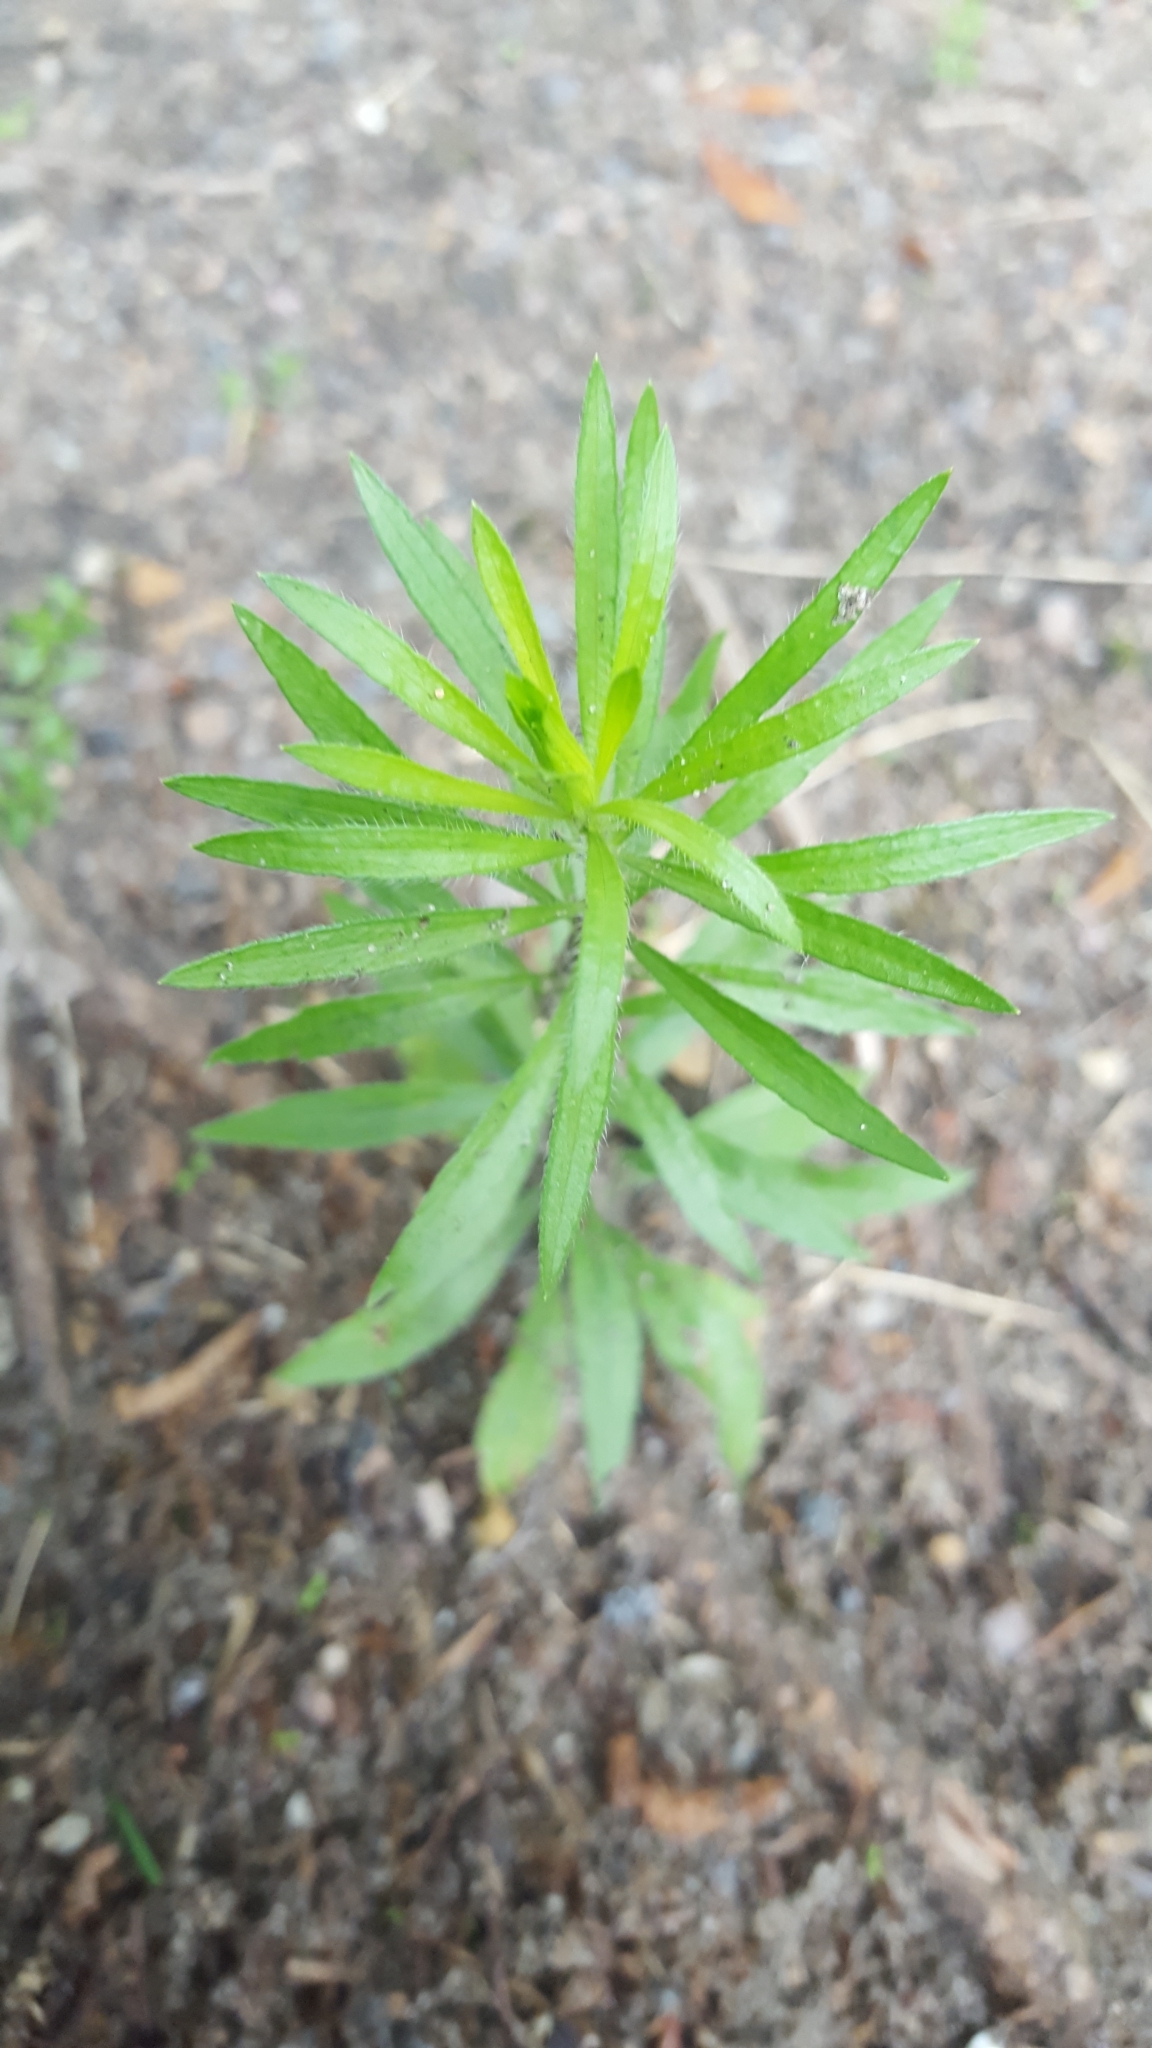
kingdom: Plantae
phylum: Tracheophyta
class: Magnoliopsida
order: Asterales
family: Asteraceae
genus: Erigeron
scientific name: Erigeron canadensis
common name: Canadian fleabane
